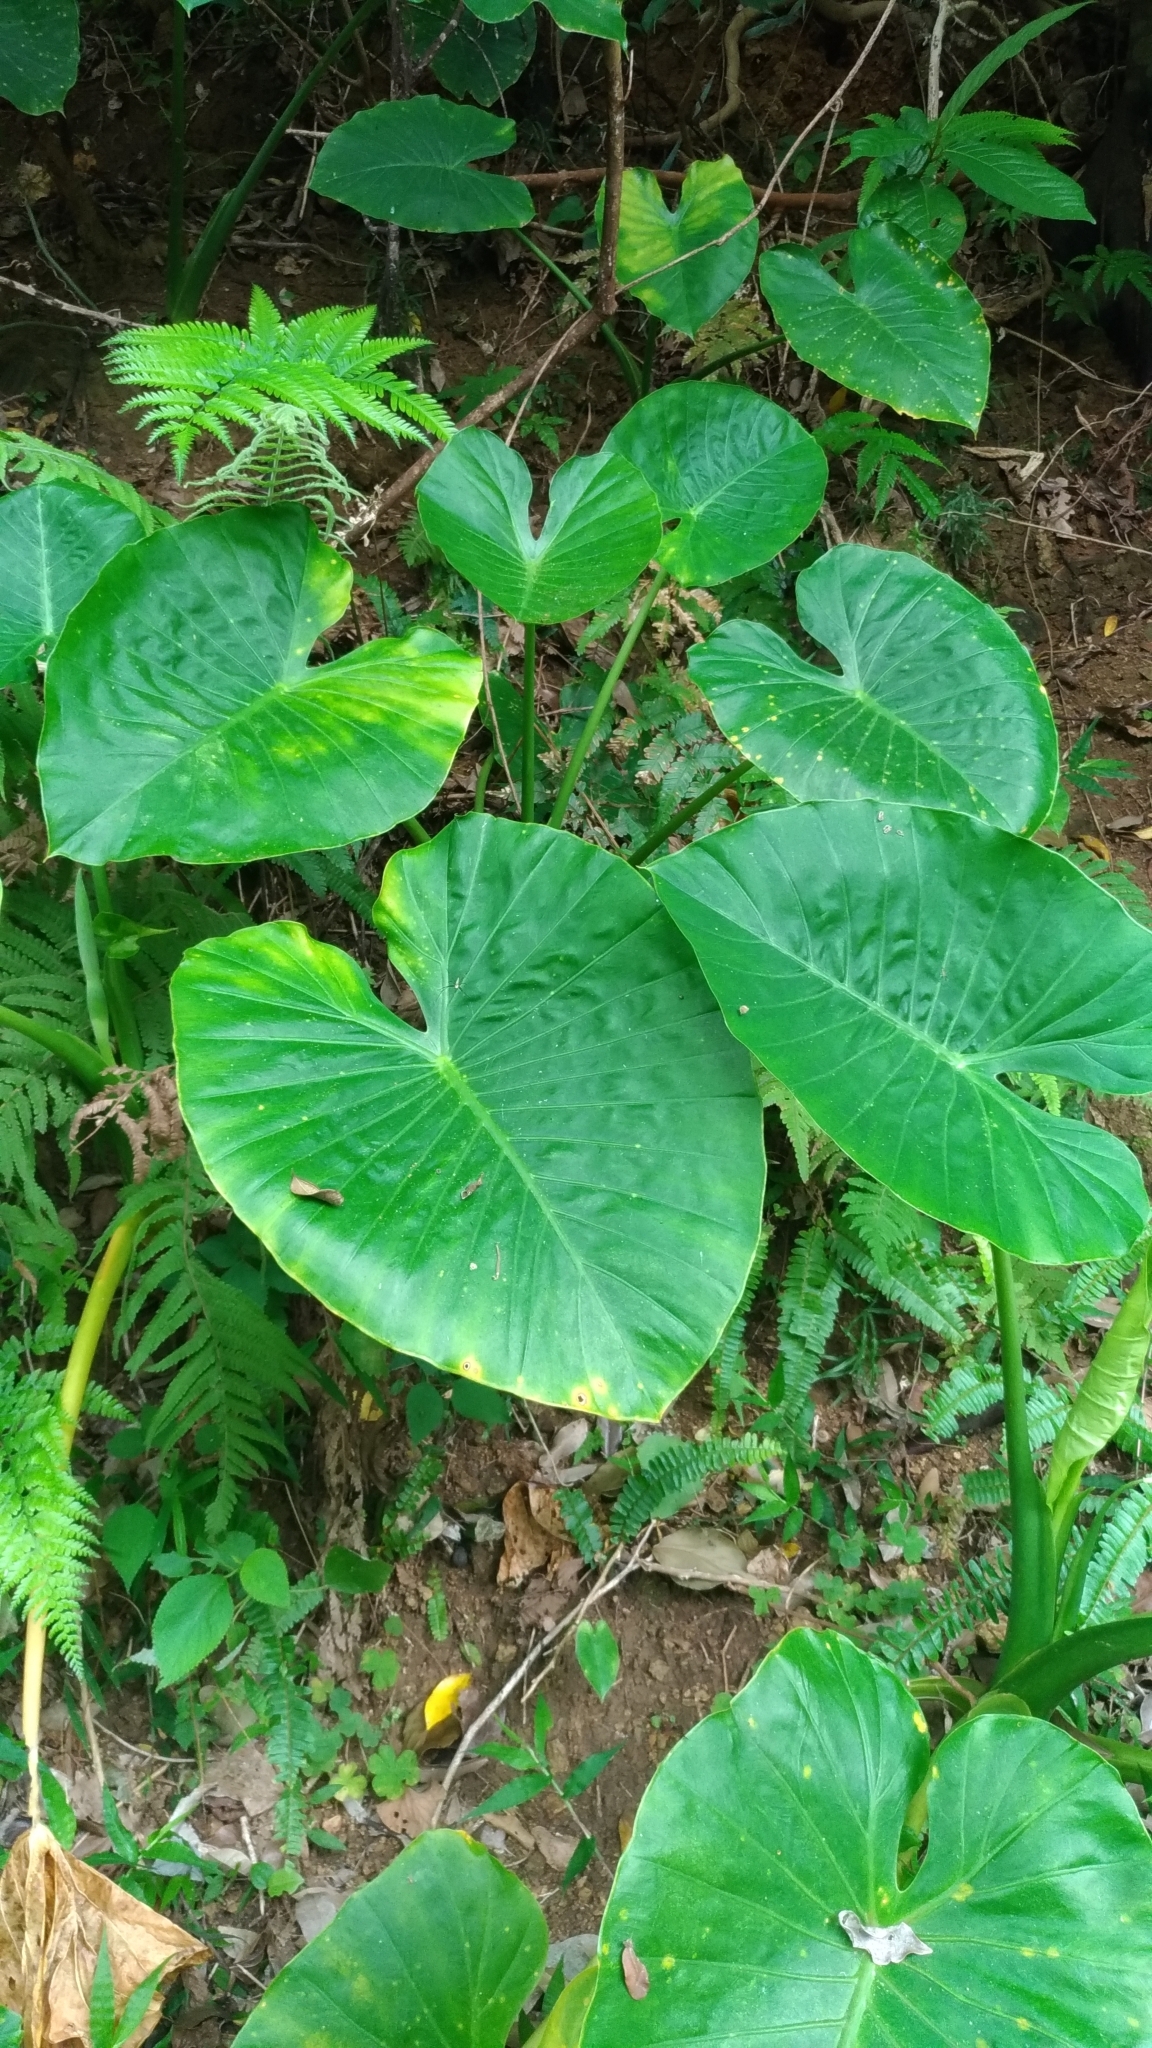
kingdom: Plantae
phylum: Tracheophyta
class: Liliopsida
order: Alismatales
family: Araceae
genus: Alocasia
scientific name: Alocasia odora
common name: Asian taro
